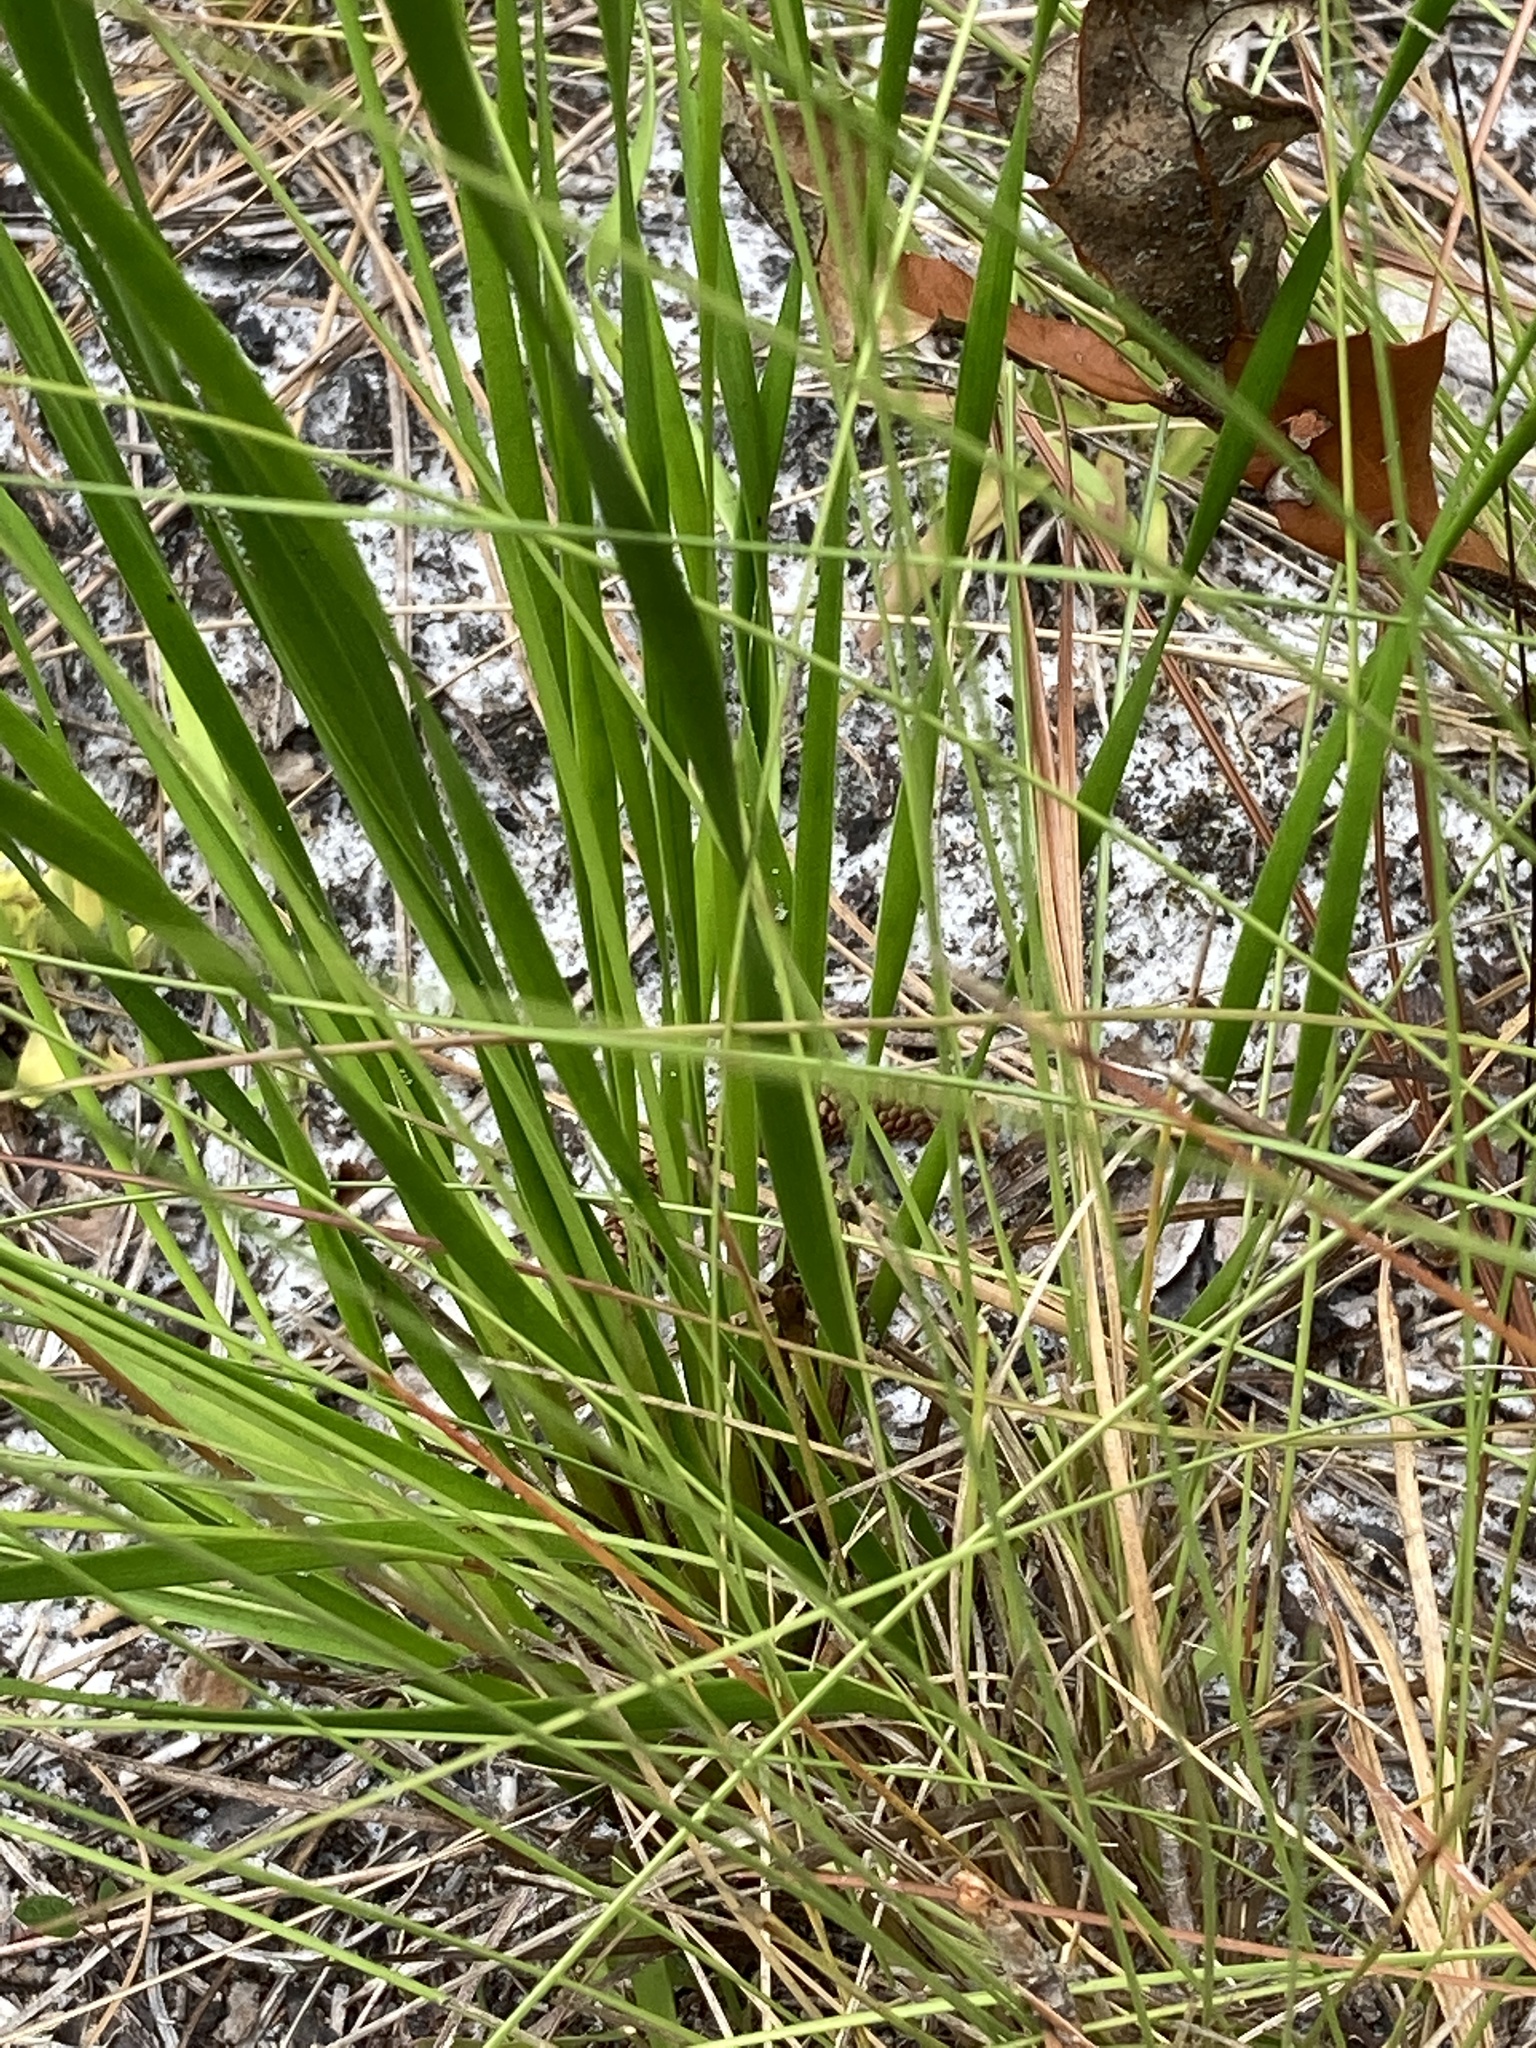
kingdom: Plantae
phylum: Tracheophyta
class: Liliopsida
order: Poales
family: Xyridaceae
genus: Xyris
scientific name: Xyris caroliniana
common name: Carolina yellow-eyed-grass
